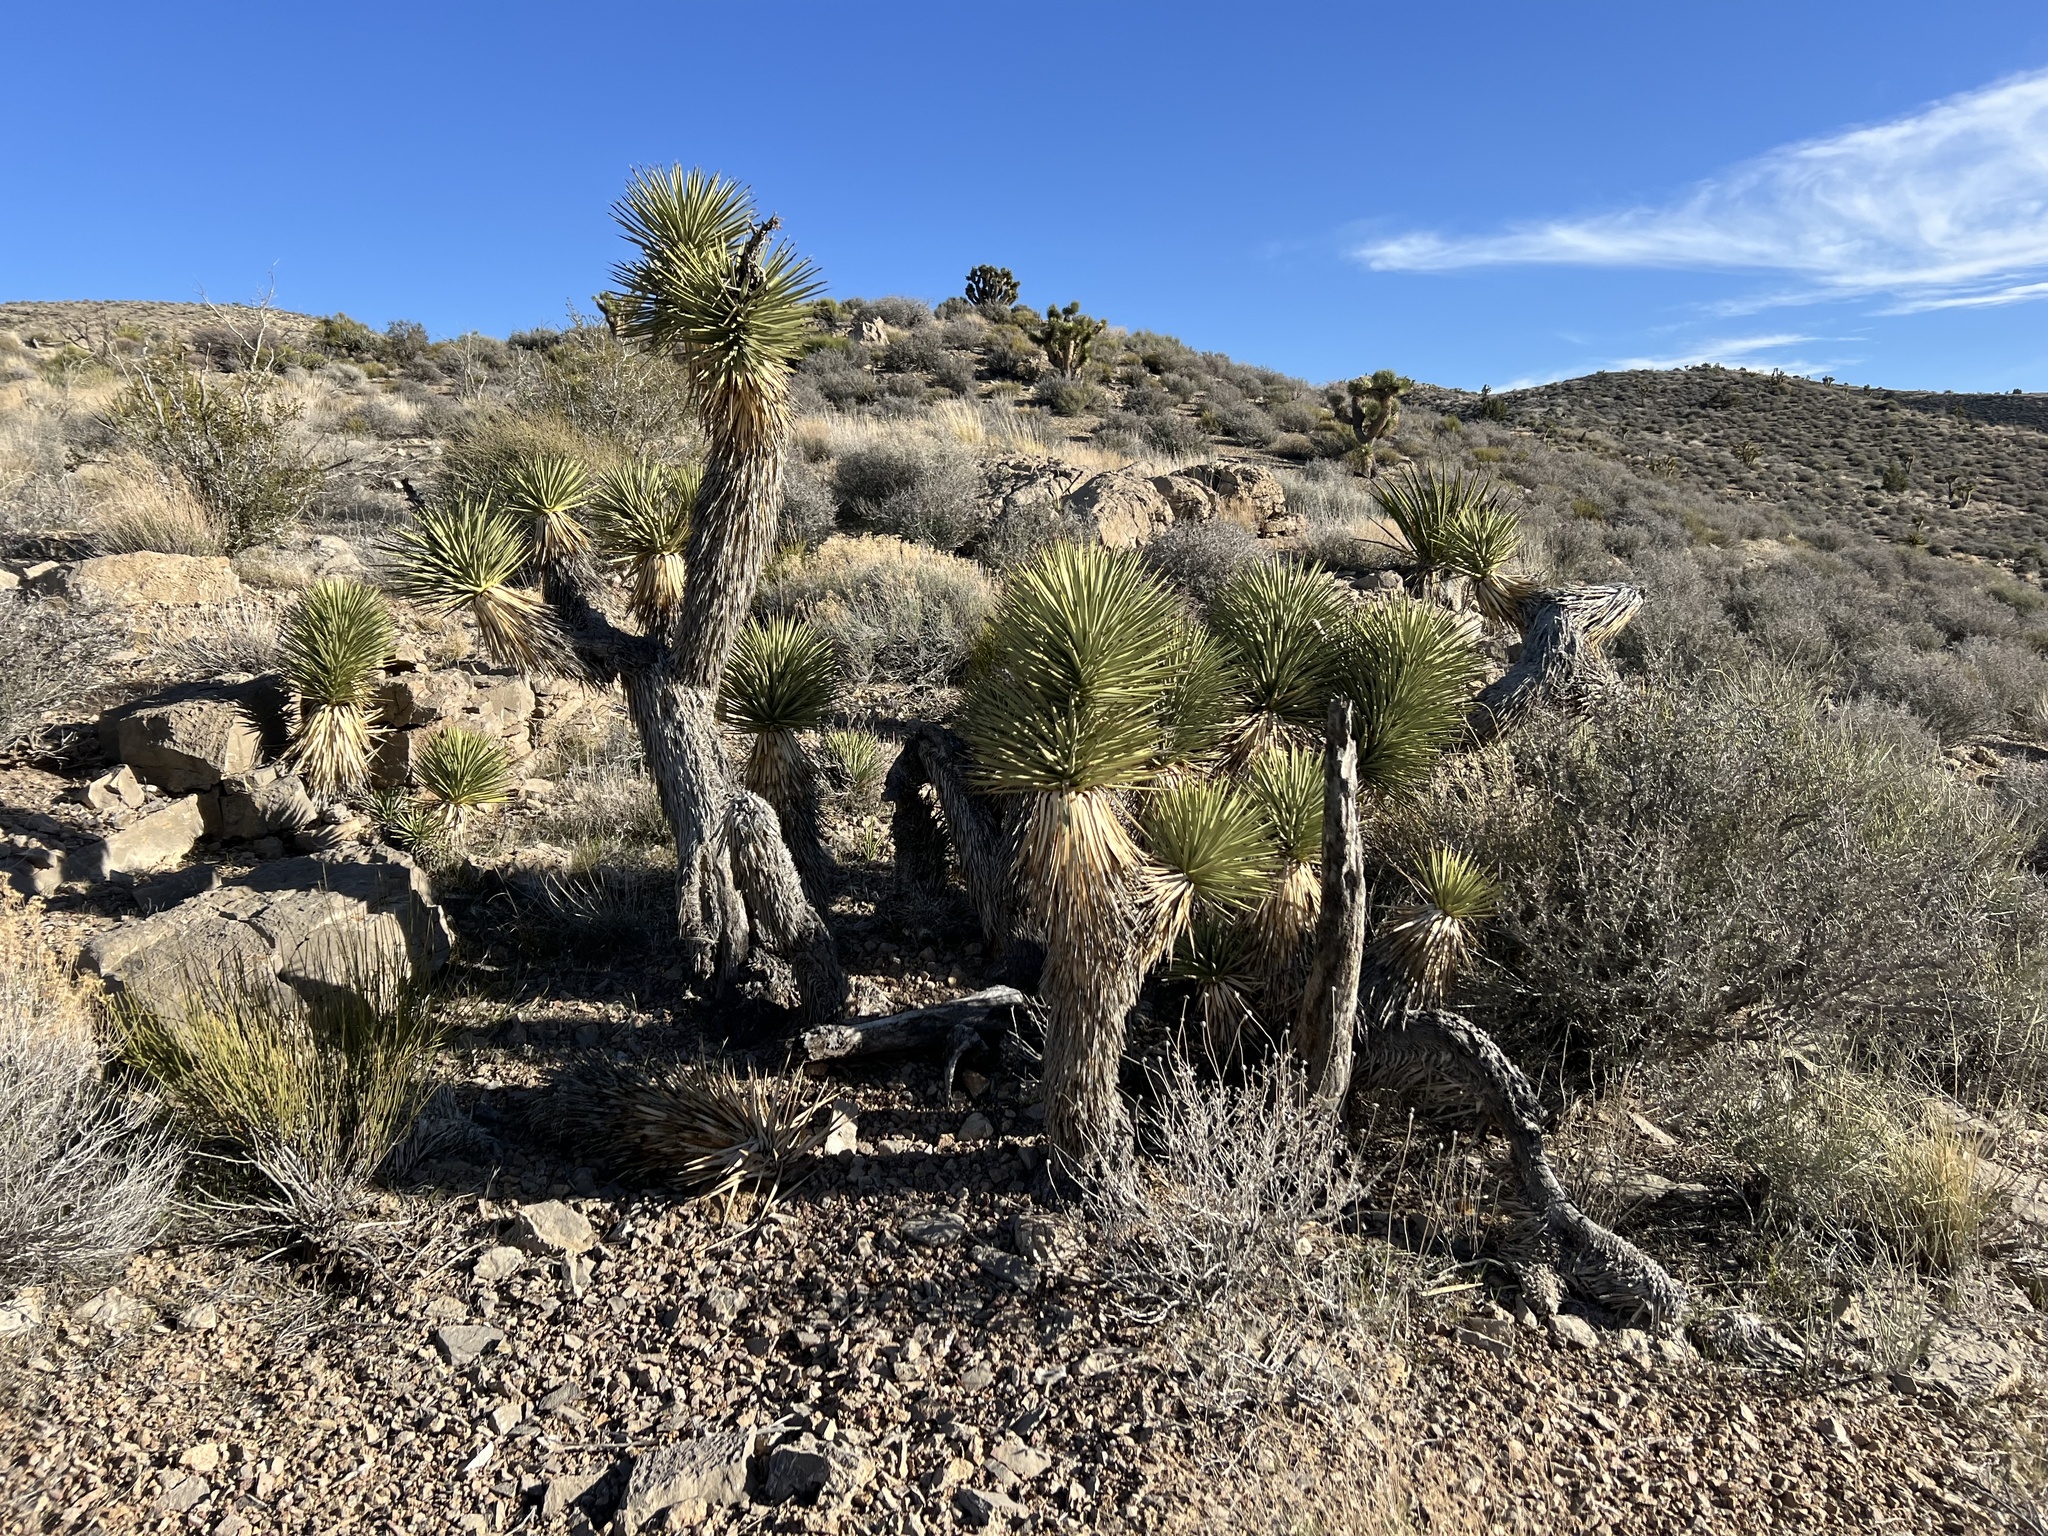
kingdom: Plantae
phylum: Tracheophyta
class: Liliopsida
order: Asparagales
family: Asparagaceae
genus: Yucca
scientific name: Yucca brevifolia
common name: Joshua tree
